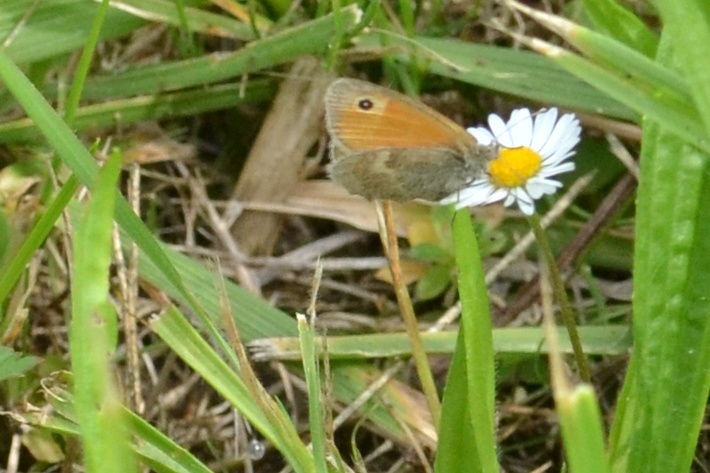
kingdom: Animalia
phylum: Arthropoda
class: Insecta
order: Lepidoptera
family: Nymphalidae
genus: Coenonympha
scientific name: Coenonympha pamphilus
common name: Small heath
